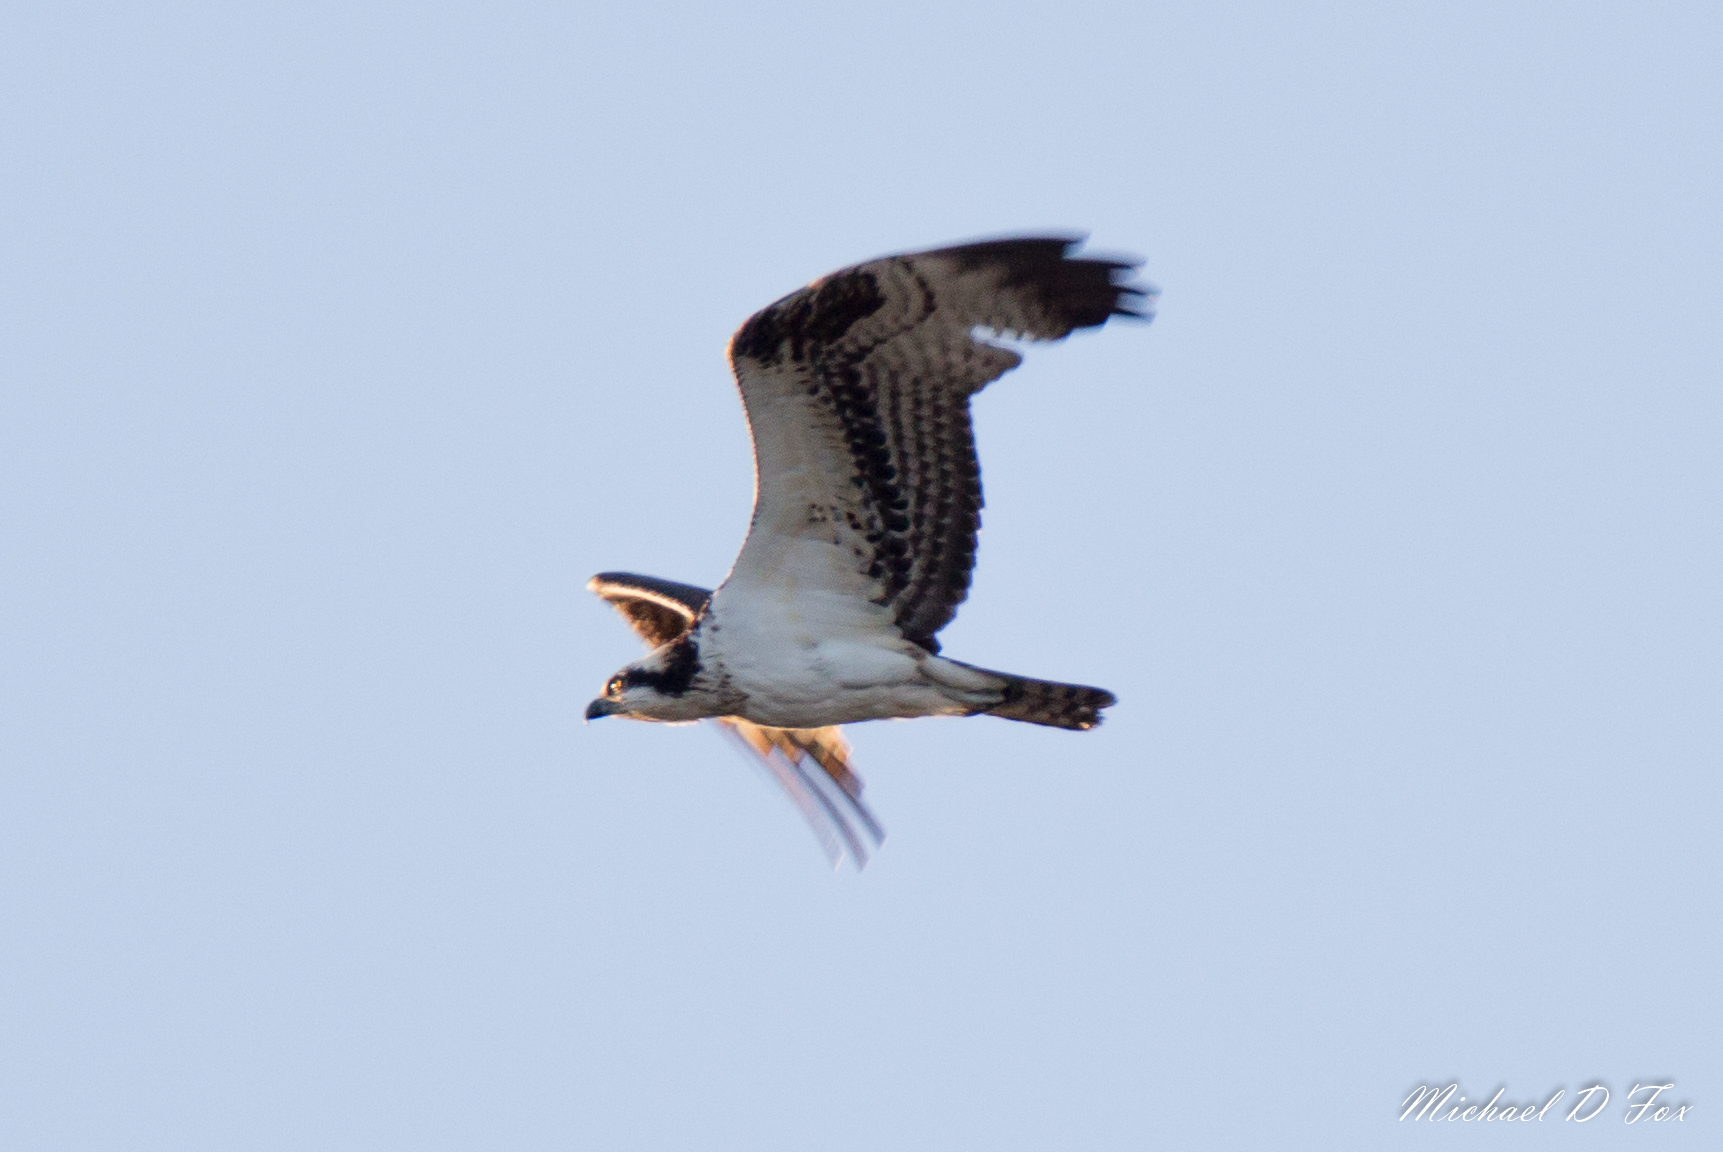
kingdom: Animalia
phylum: Chordata
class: Aves
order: Accipitriformes
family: Pandionidae
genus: Pandion
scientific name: Pandion haliaetus
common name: Osprey
